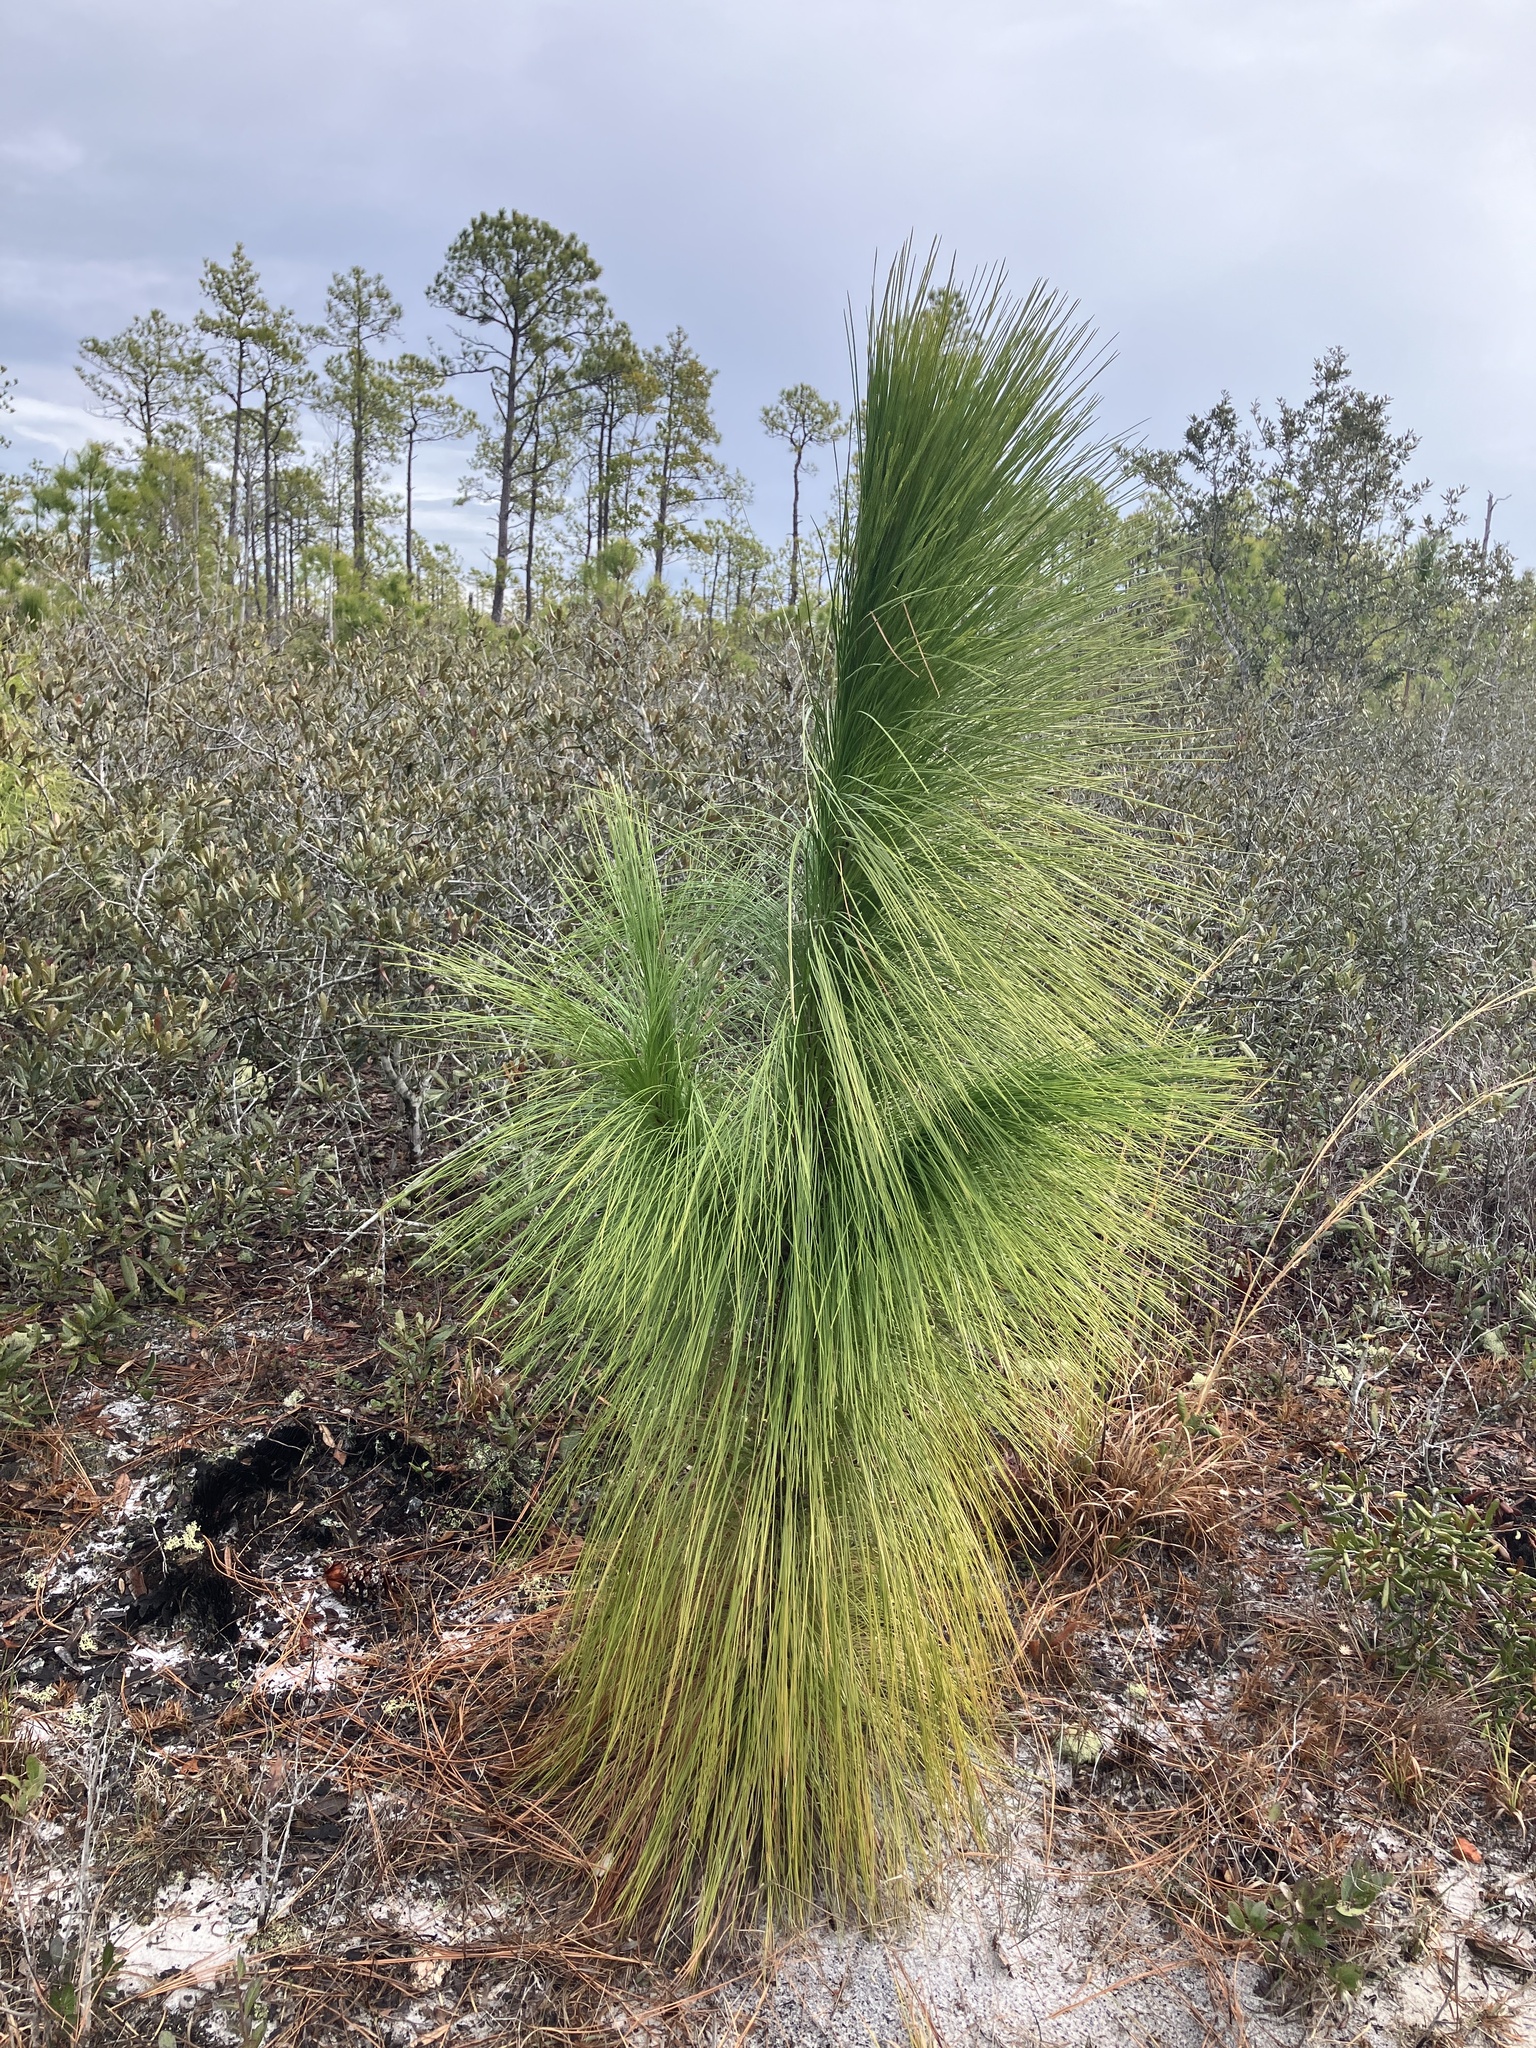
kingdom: Plantae
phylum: Tracheophyta
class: Pinopsida
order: Pinales
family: Pinaceae
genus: Pinus
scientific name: Pinus palustris
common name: Longleaf pine
